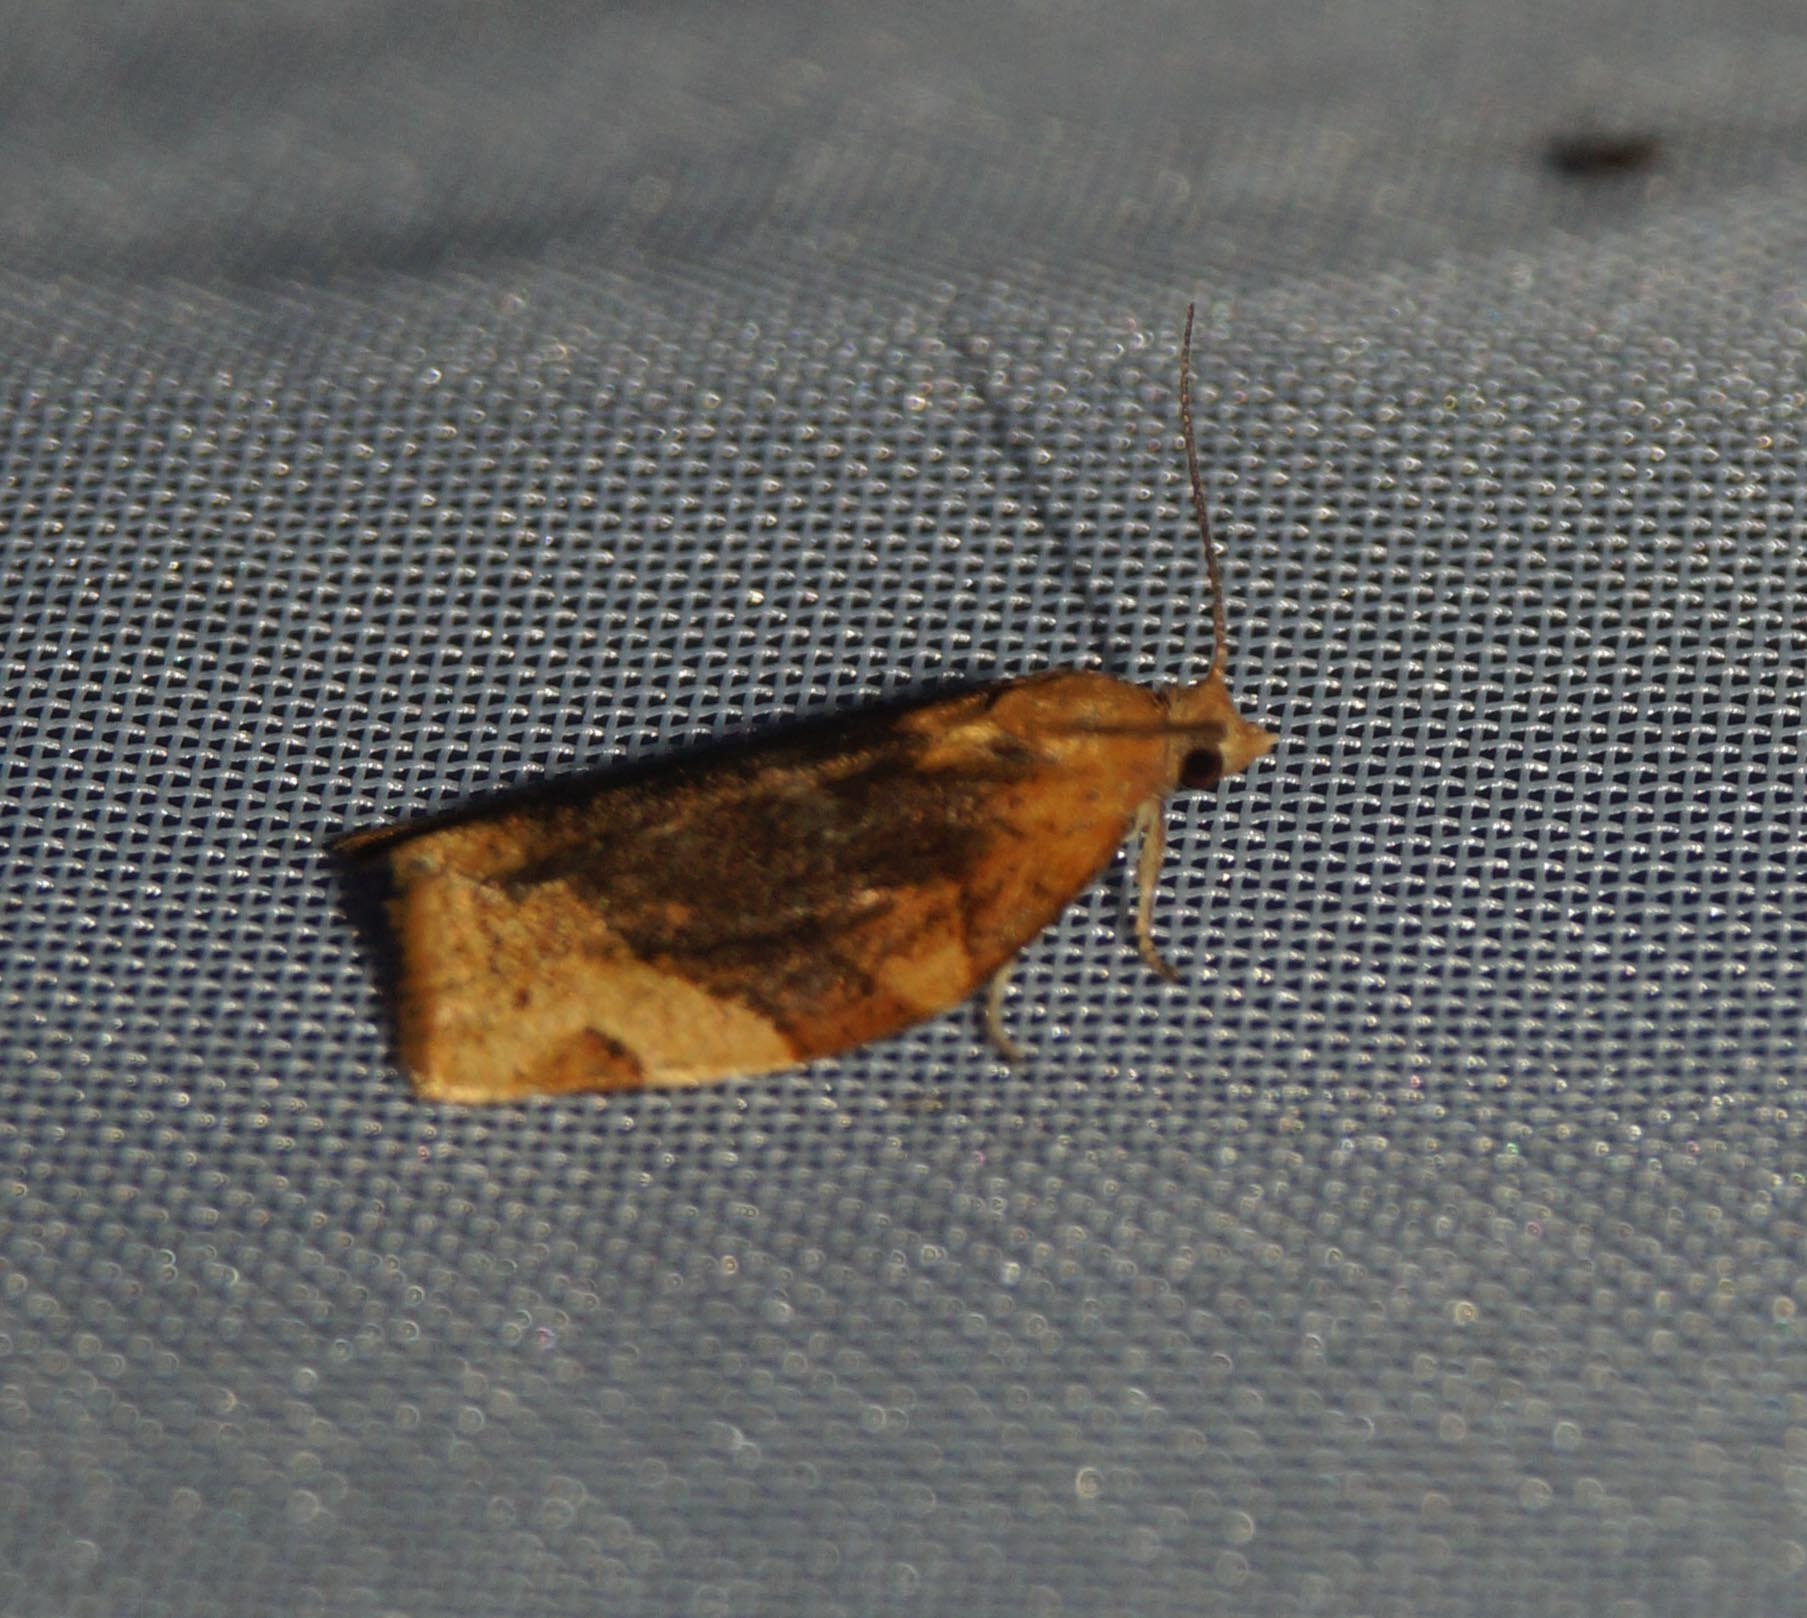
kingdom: Animalia
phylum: Arthropoda
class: Insecta
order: Lepidoptera
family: Tortricidae
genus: Pandemis
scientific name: Pandemis cerasana
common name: Barred fruit-tree tortrix
